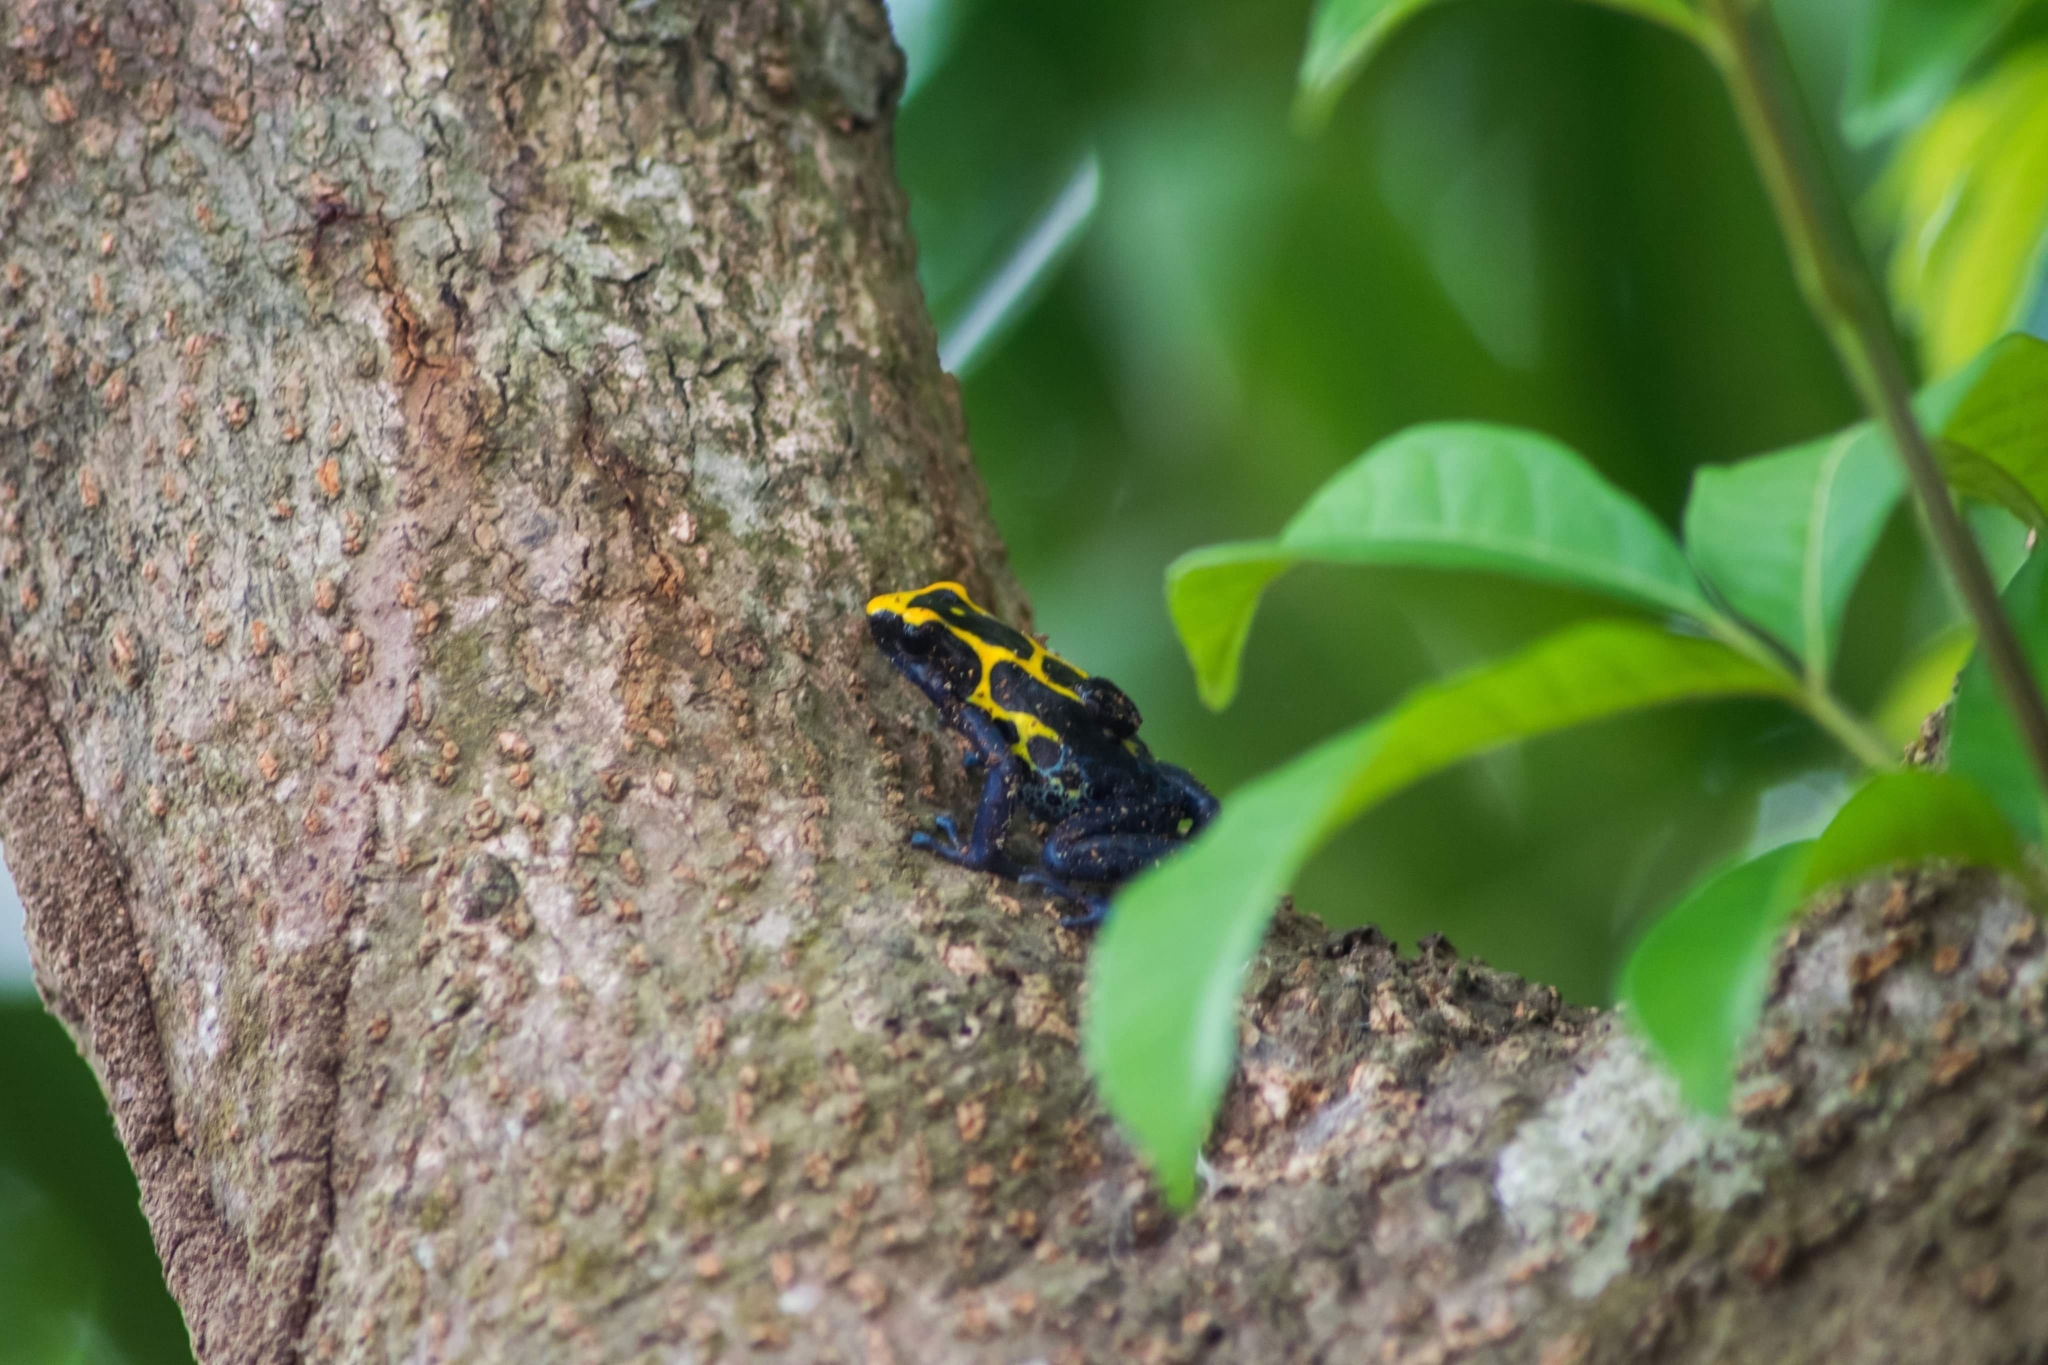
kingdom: Animalia
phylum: Chordata
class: Amphibia
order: Anura
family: Dendrobatidae
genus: Dendrobates
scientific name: Dendrobates tinctorius
